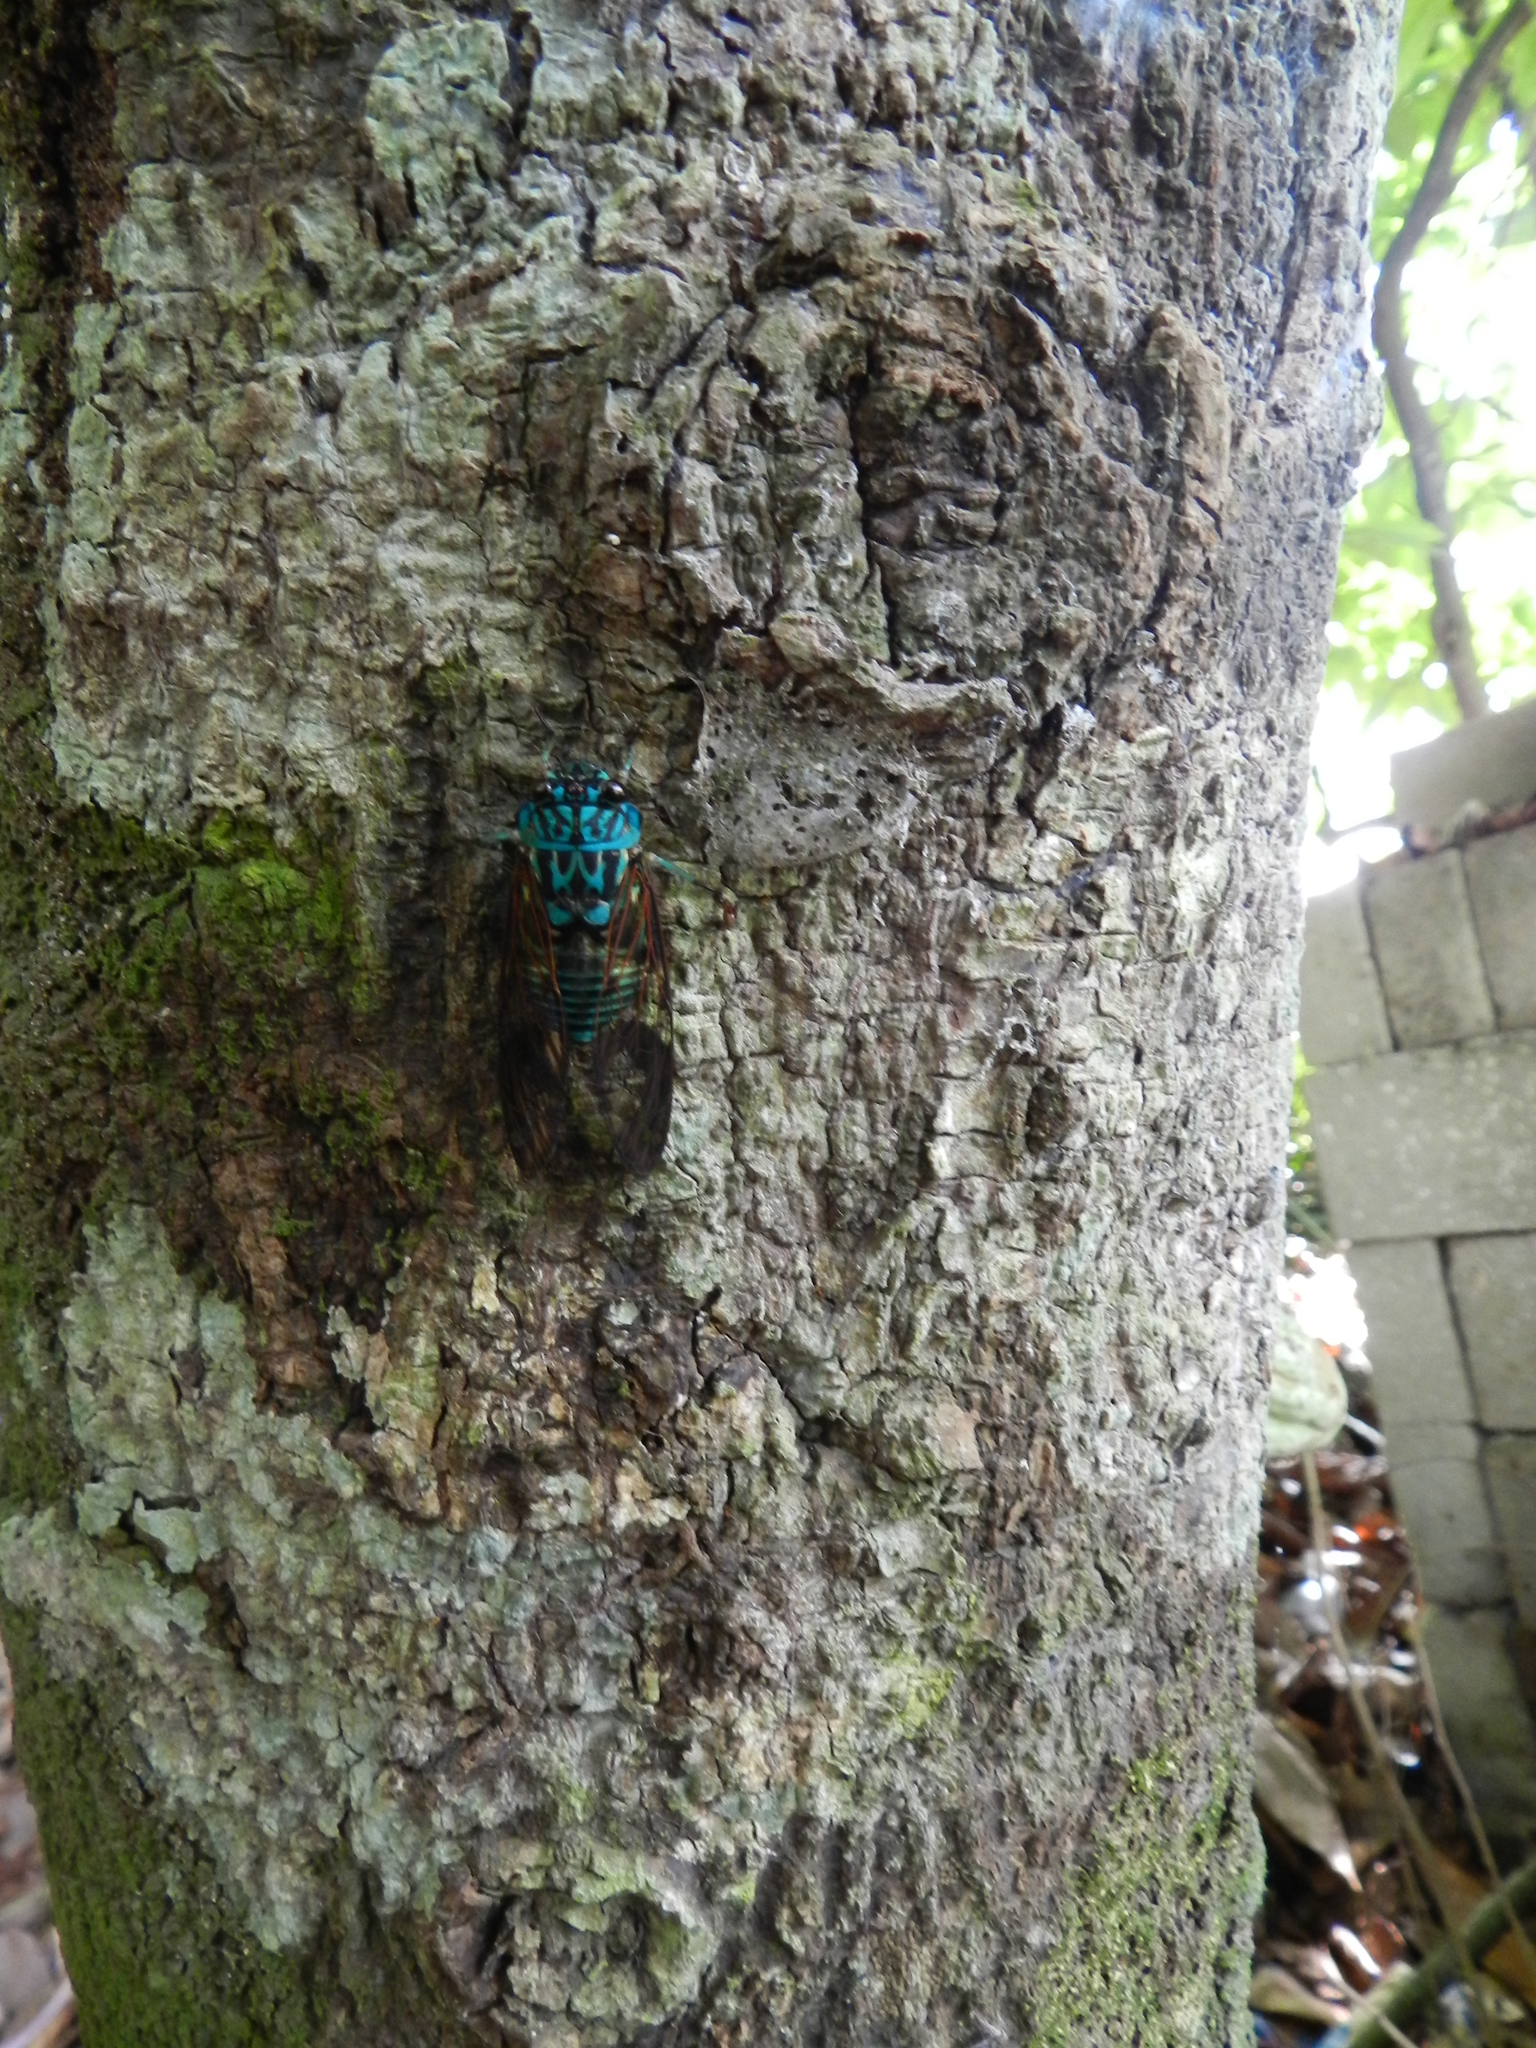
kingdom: Animalia
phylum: Arthropoda
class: Insecta
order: Hemiptera
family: Cicadidae
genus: Zammara
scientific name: Zammara calochroma
